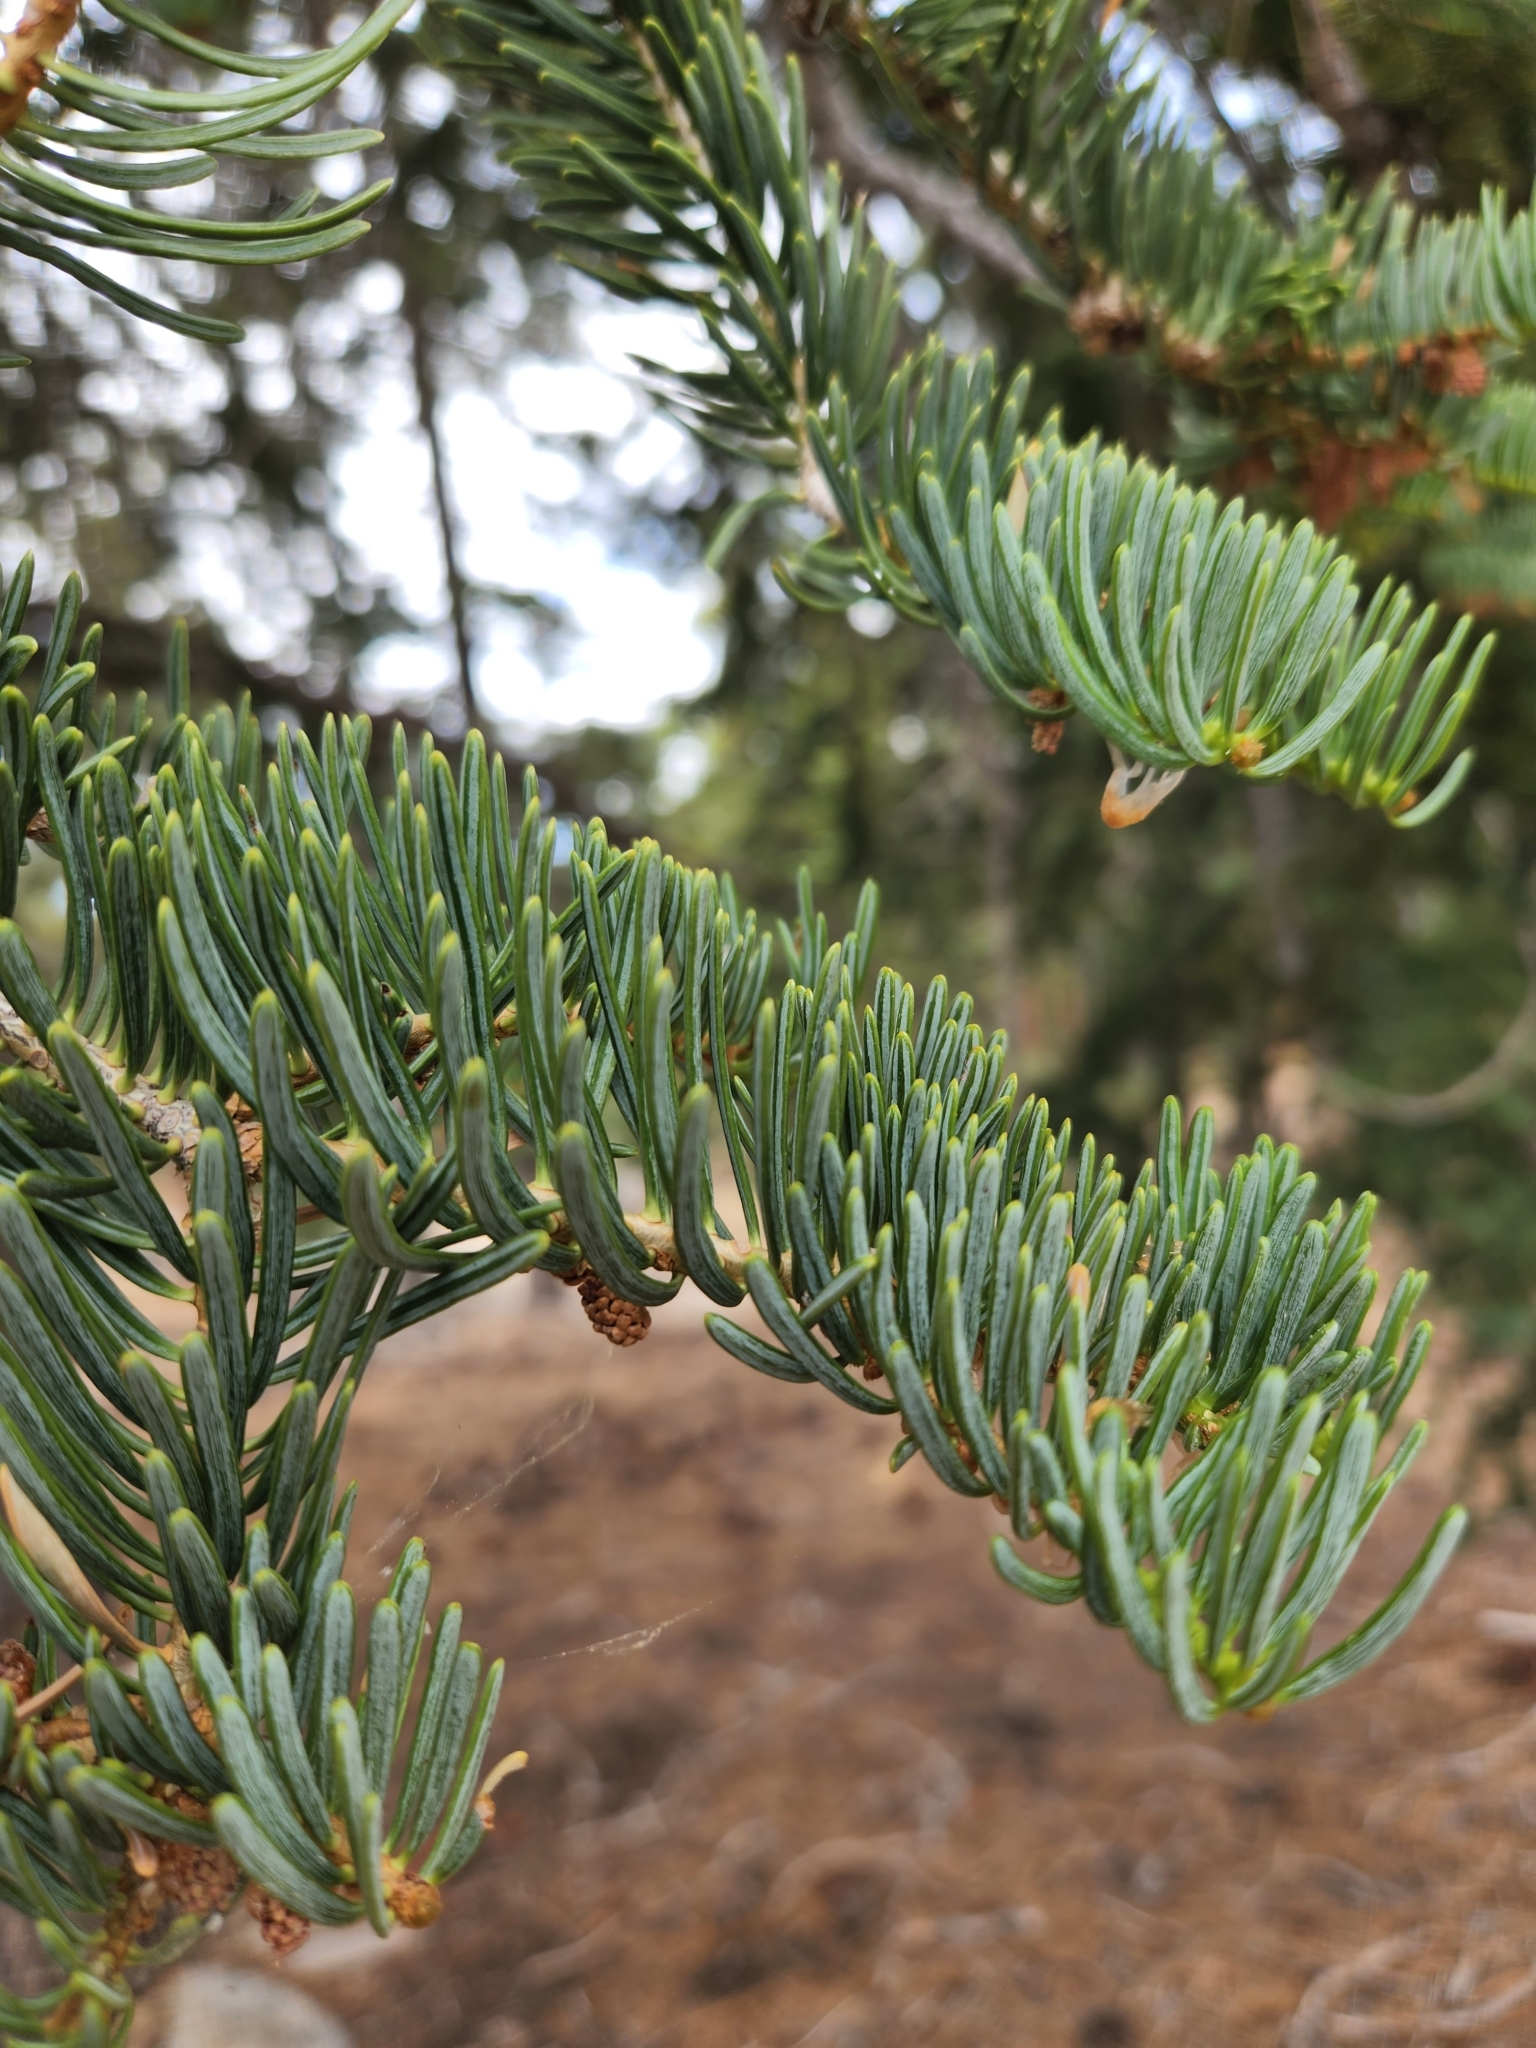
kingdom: Plantae
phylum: Tracheophyta
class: Pinopsida
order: Pinales
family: Pinaceae
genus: Abies
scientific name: Abies concolor
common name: Colorado fir
